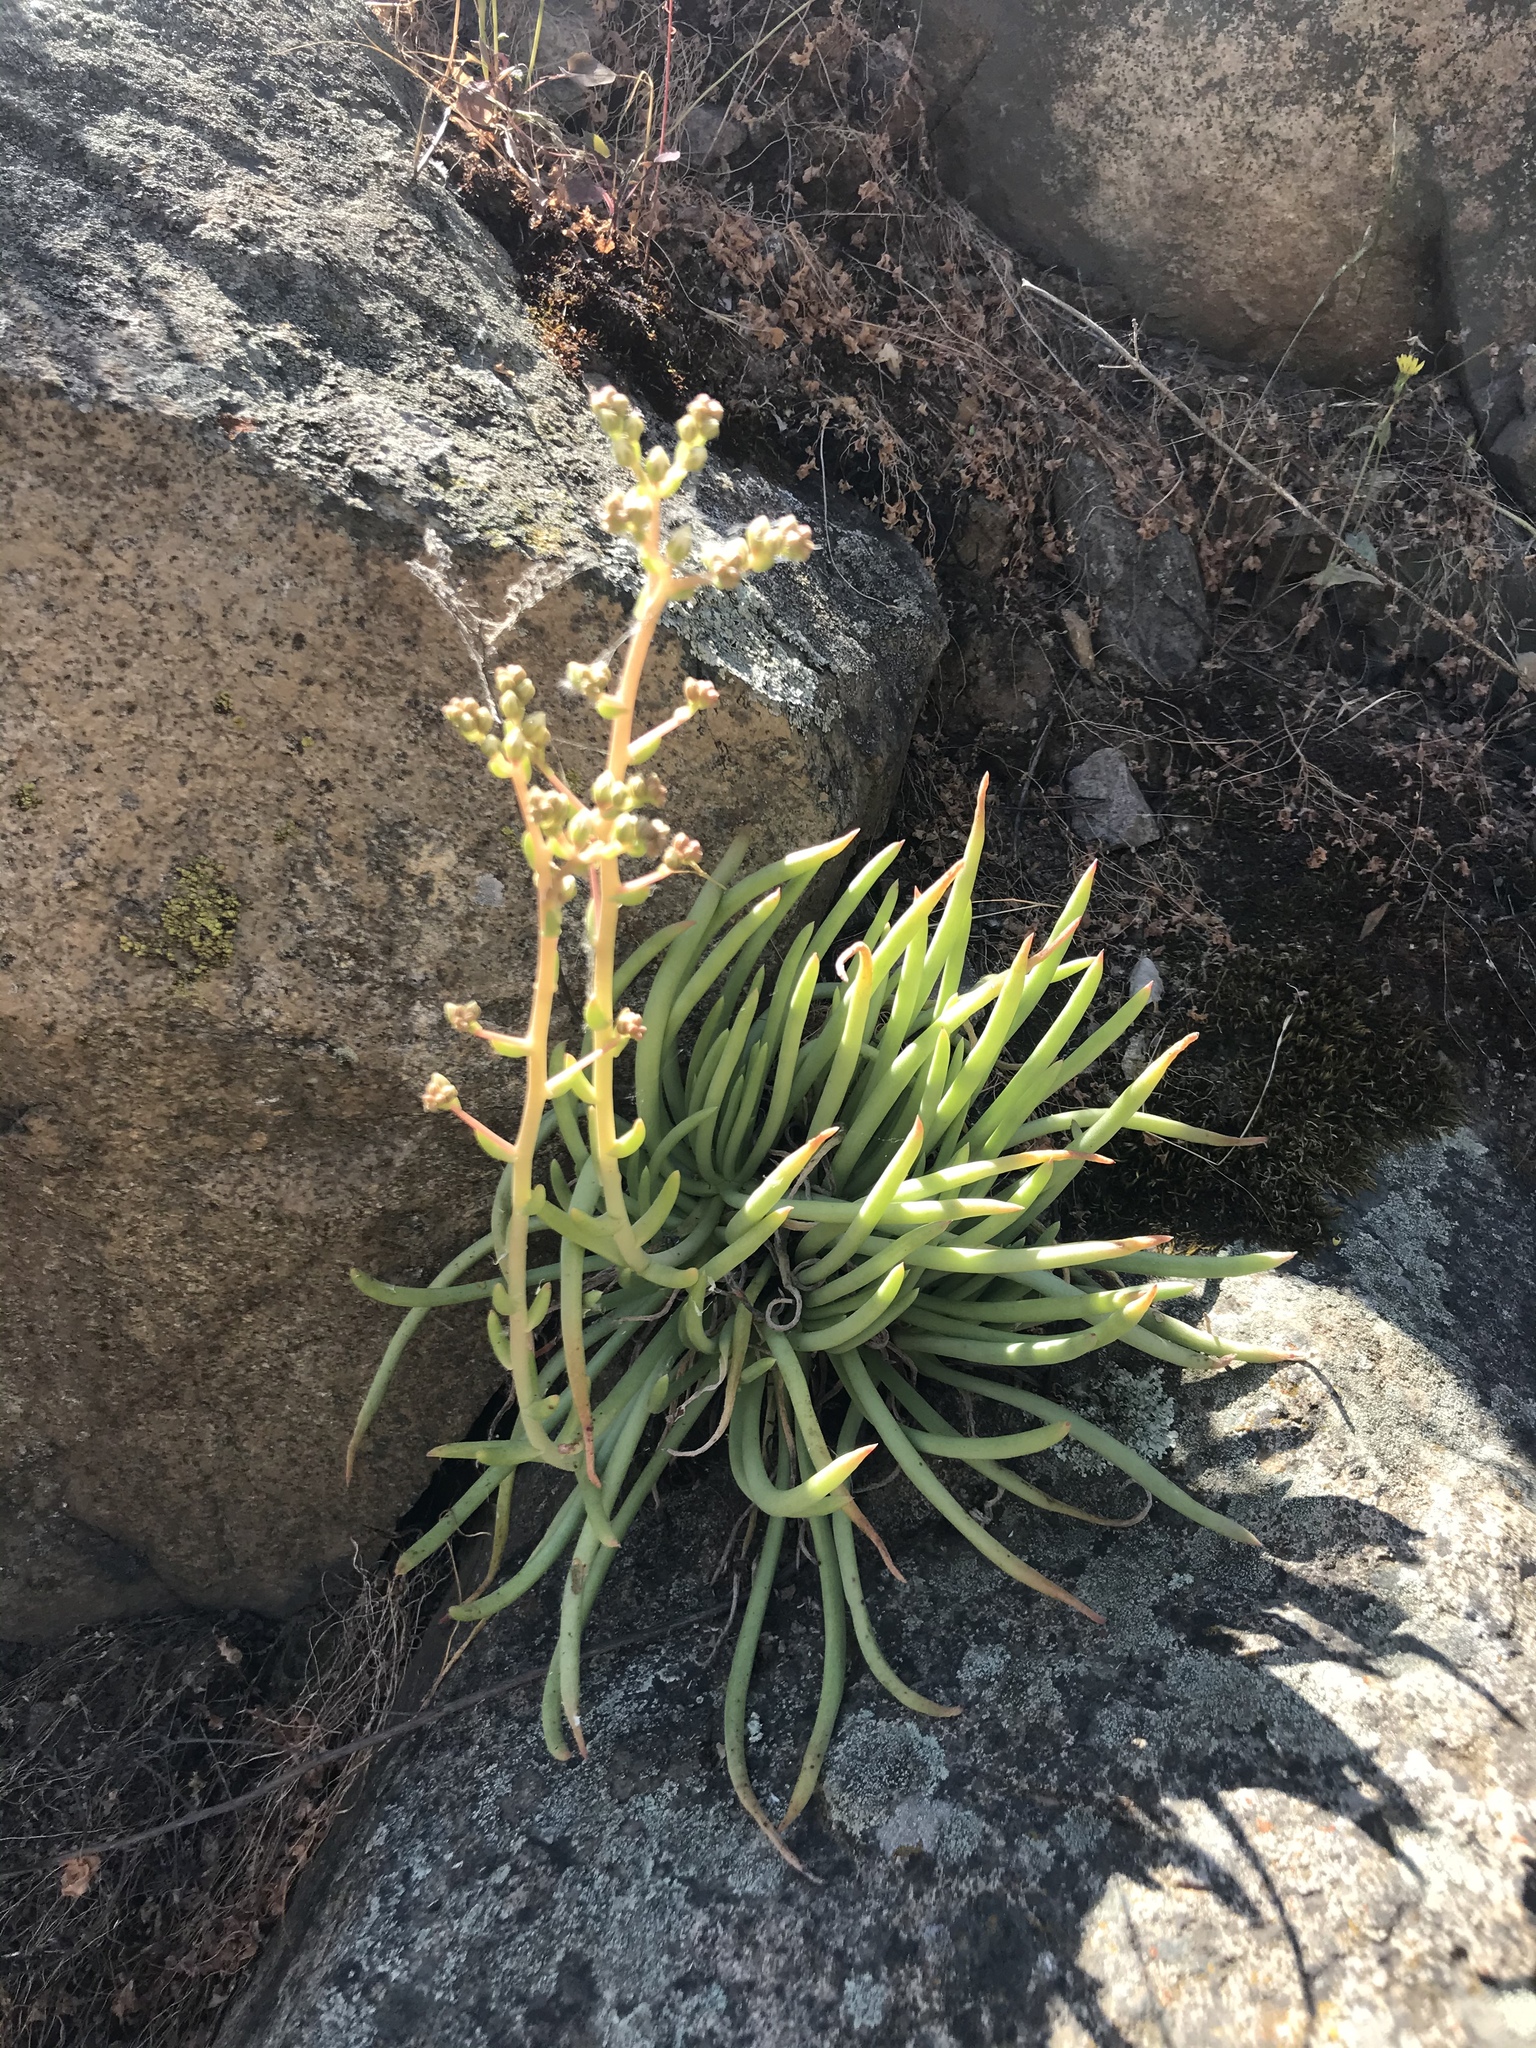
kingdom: Plantae
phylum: Tracheophyta
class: Magnoliopsida
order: Saxifragales
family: Crassulaceae
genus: Dudleya
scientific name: Dudleya edulis
